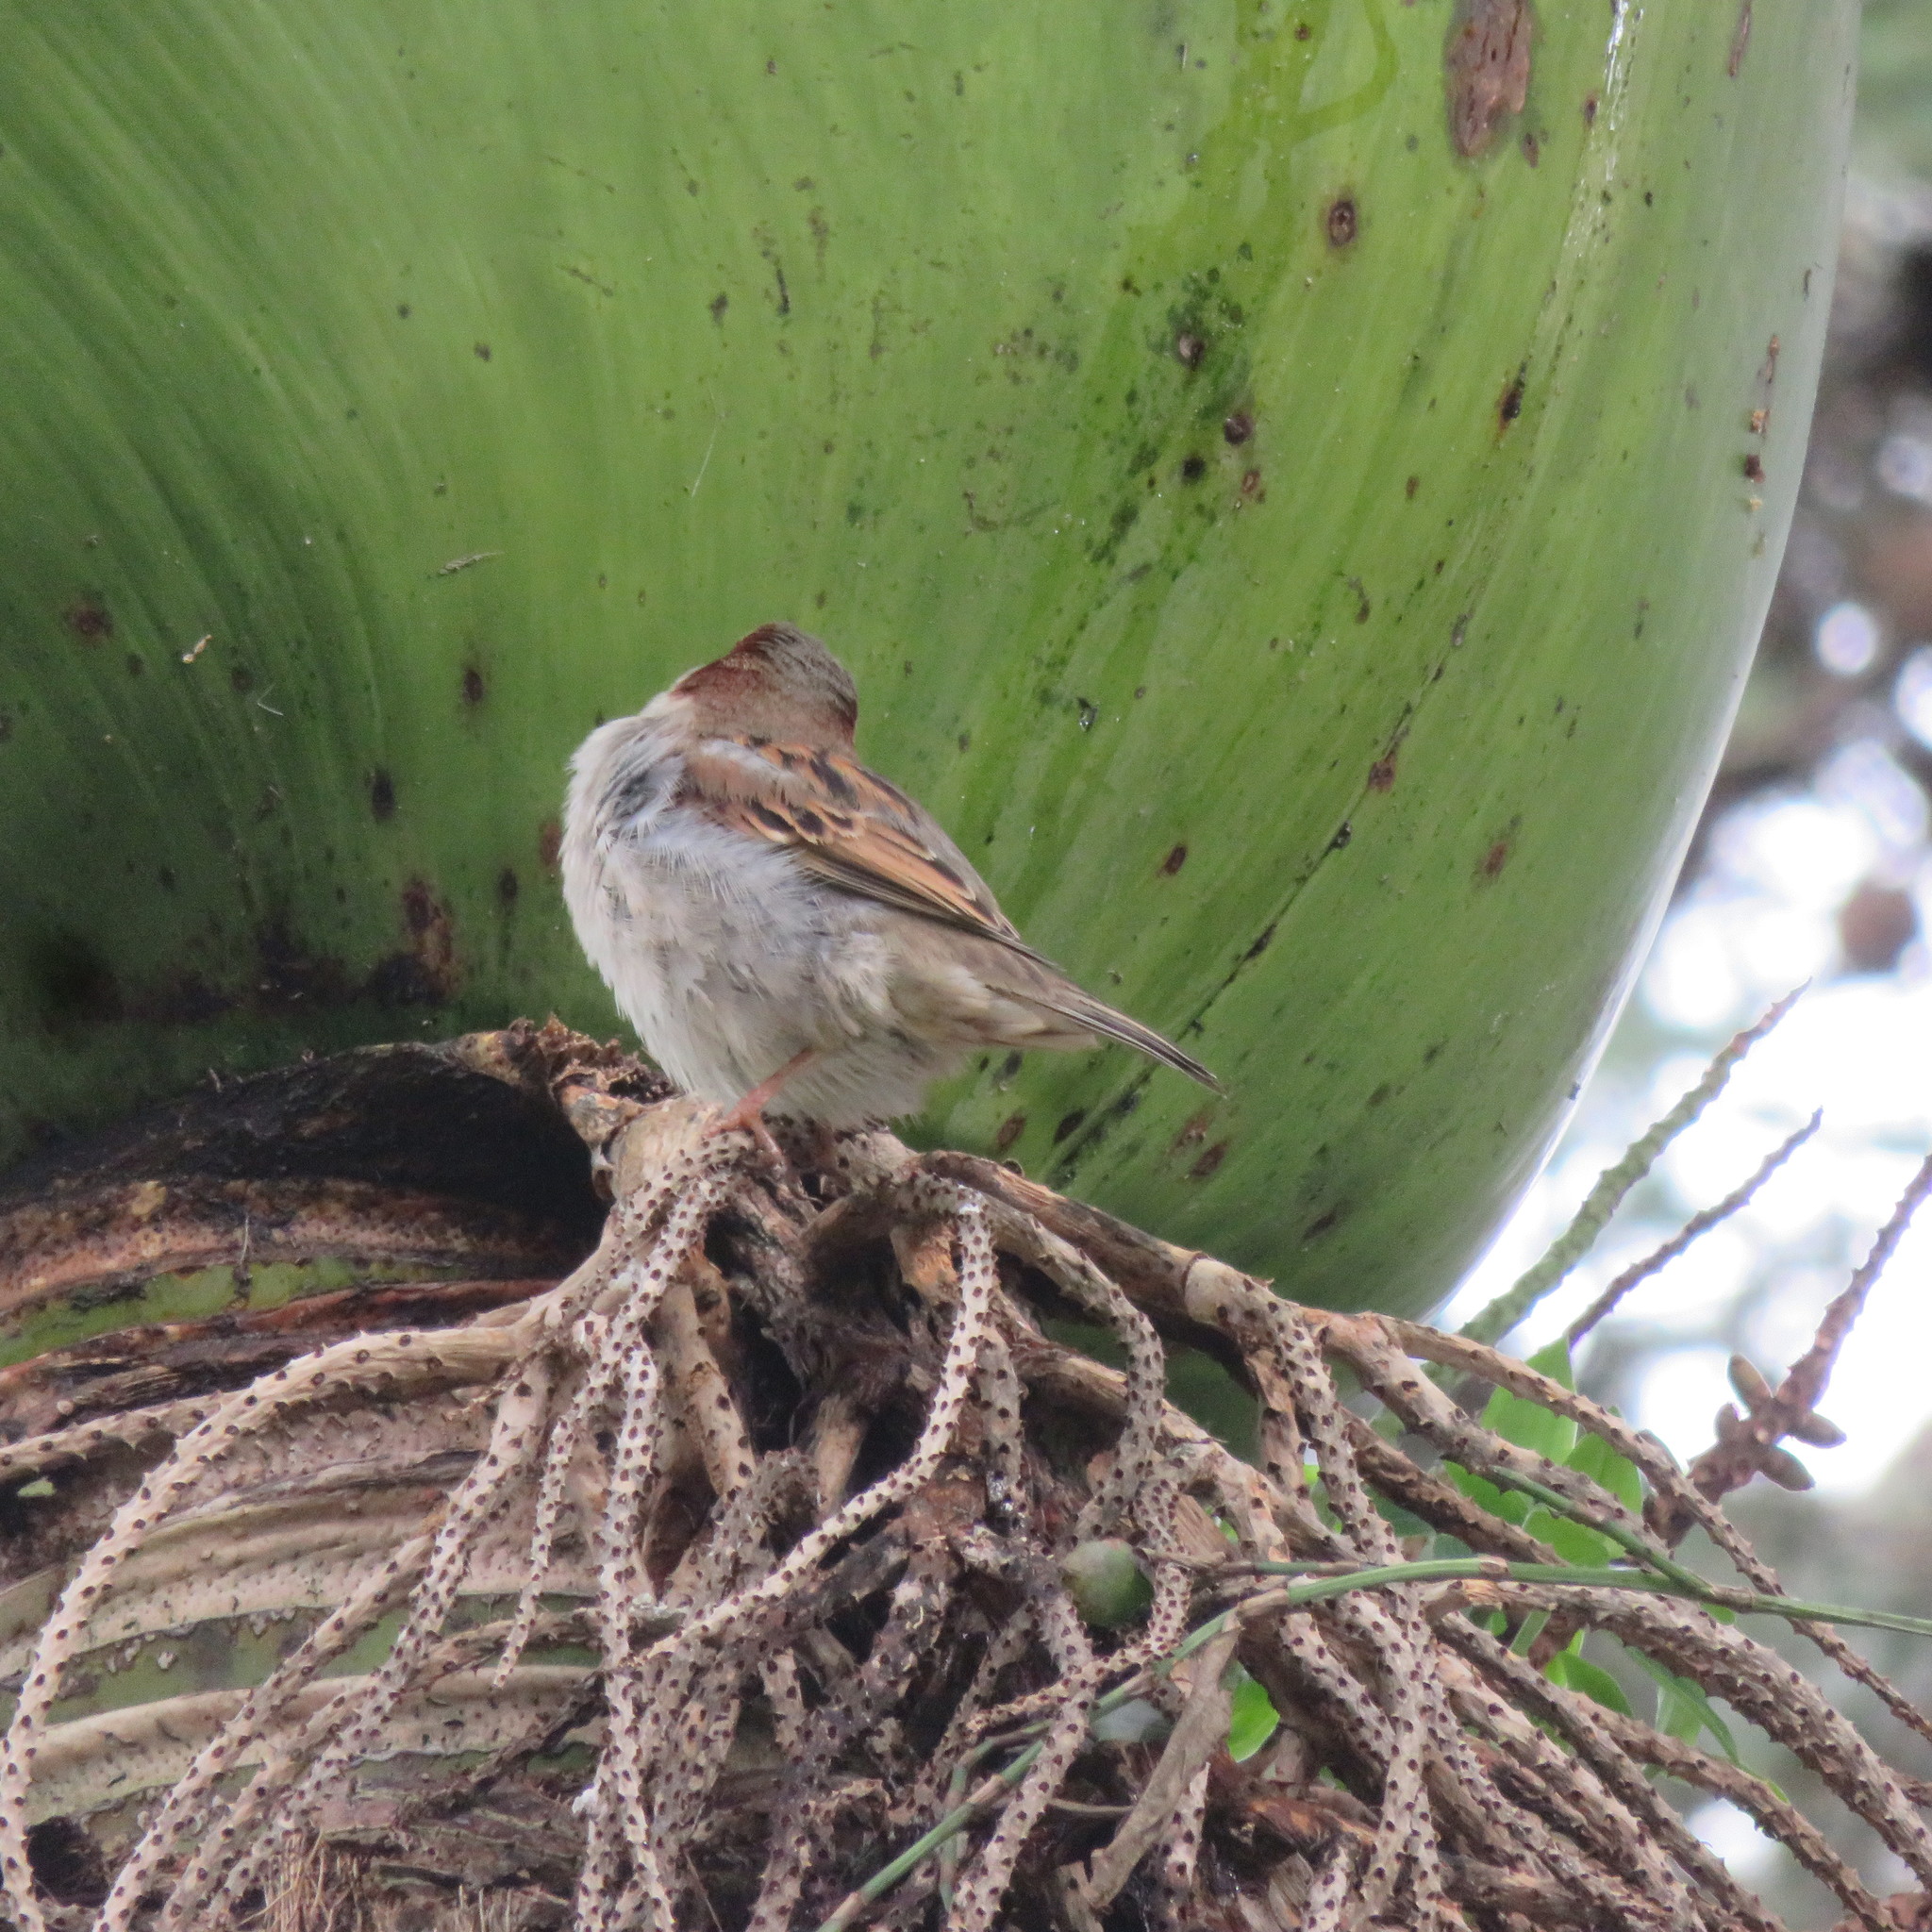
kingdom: Animalia
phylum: Chordata
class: Aves
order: Passeriformes
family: Passeridae
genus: Passer
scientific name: Passer domesticus
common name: House sparrow
